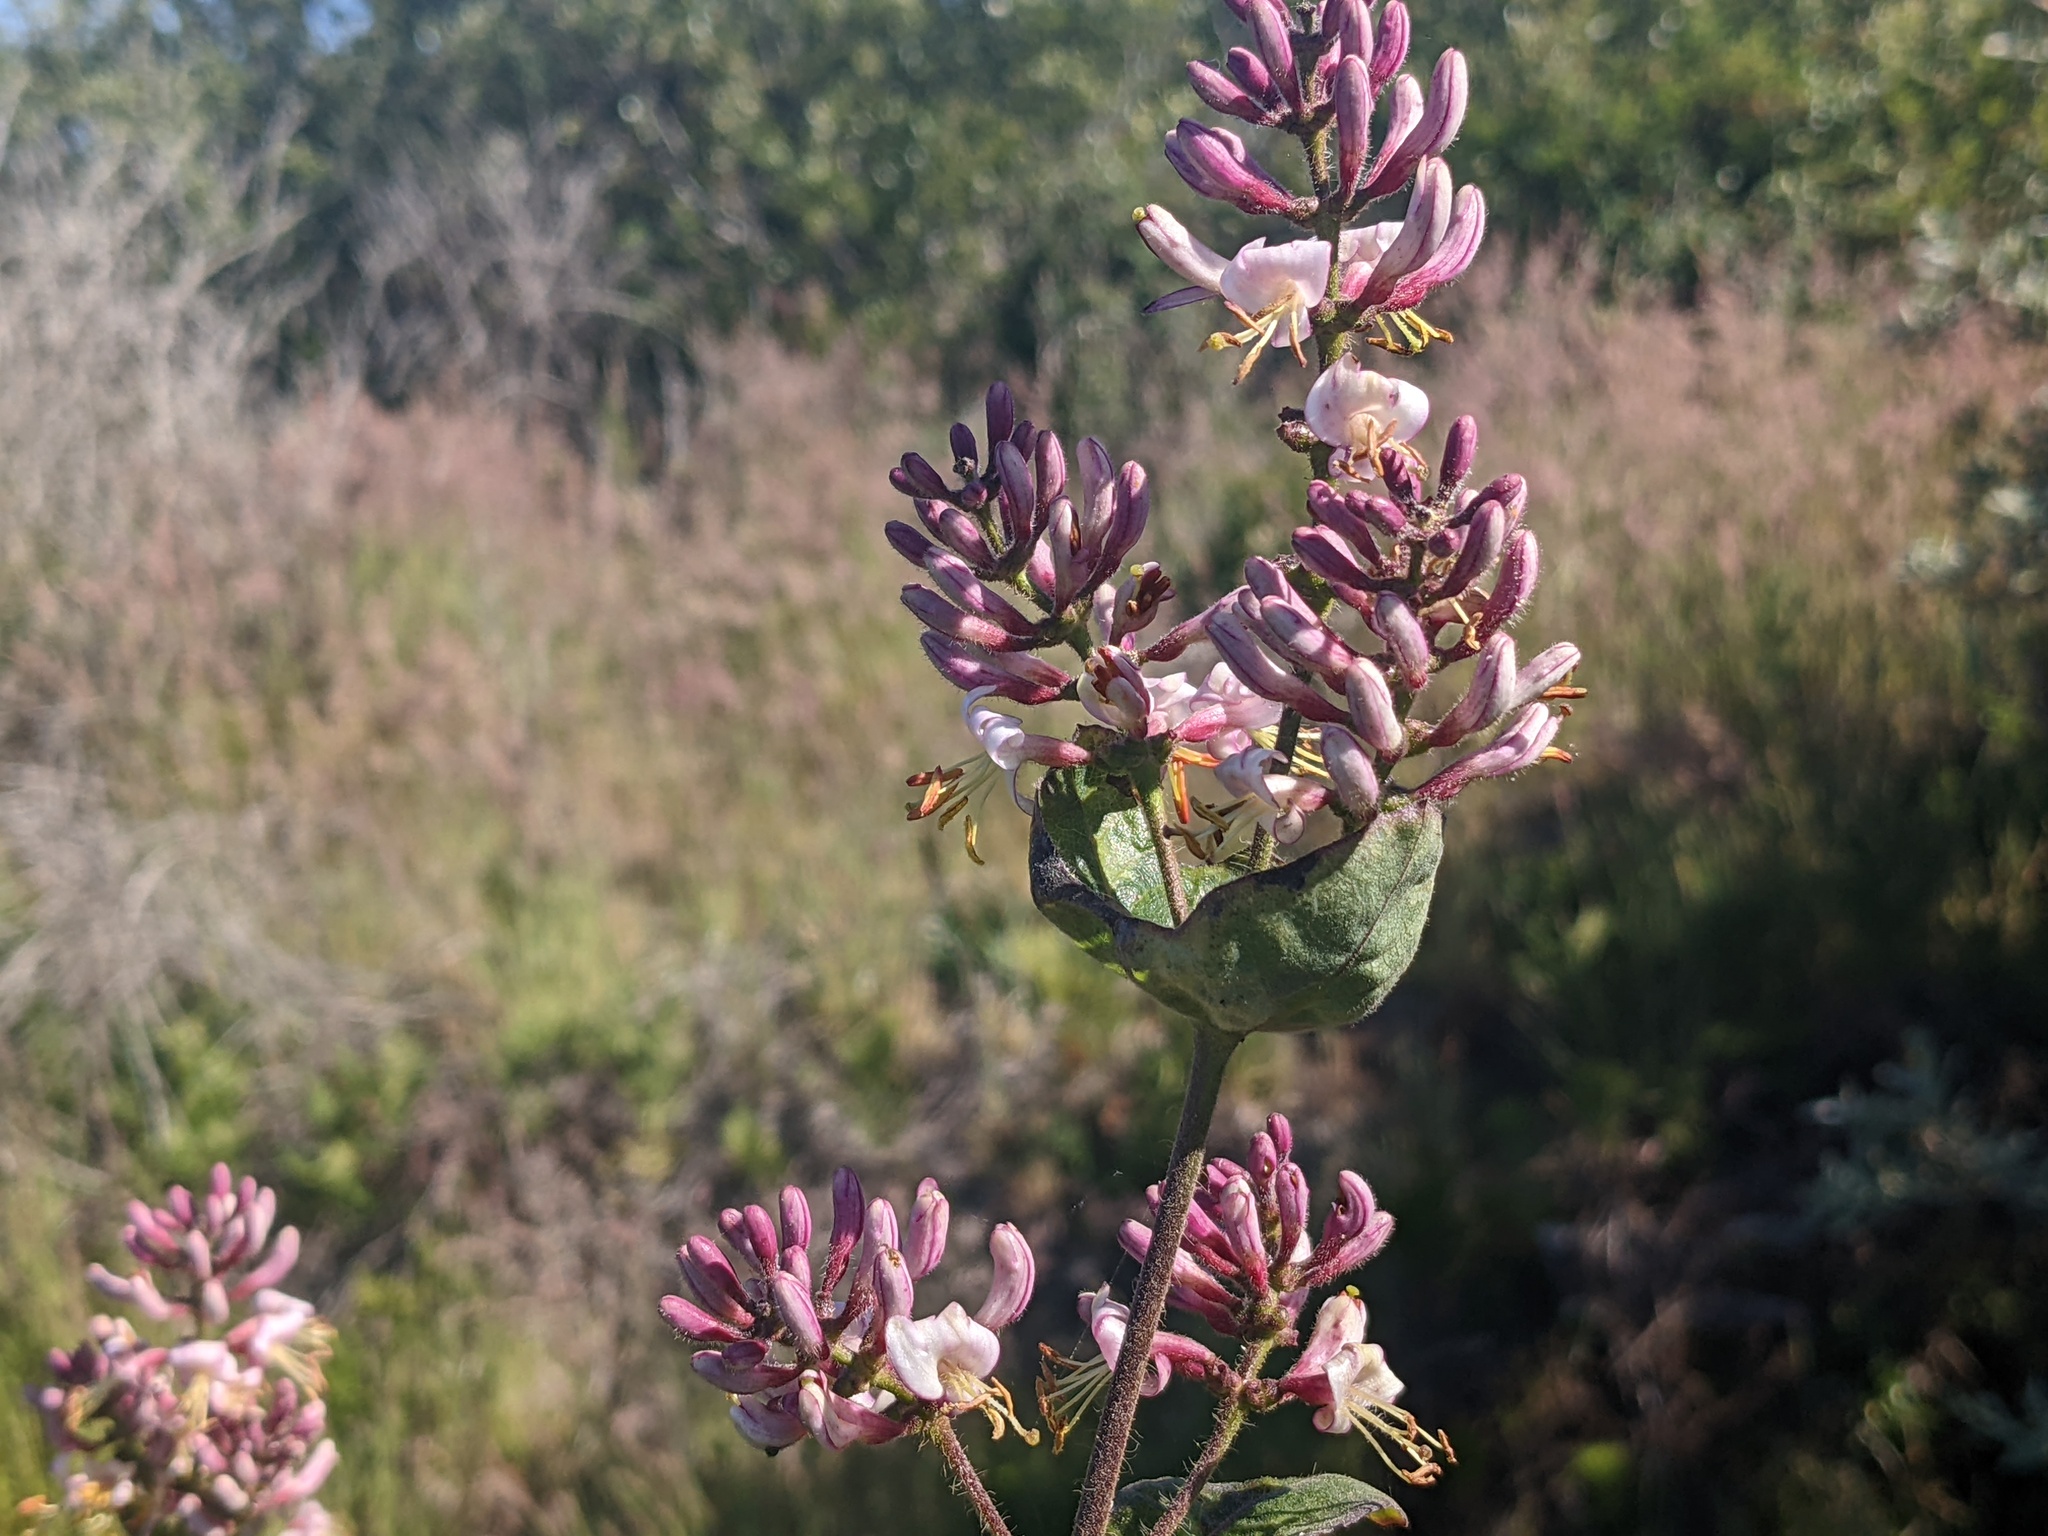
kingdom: Plantae
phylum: Tracheophyta
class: Magnoliopsida
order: Dipsacales
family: Caprifoliaceae
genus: Lonicera
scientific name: Lonicera hispidula
